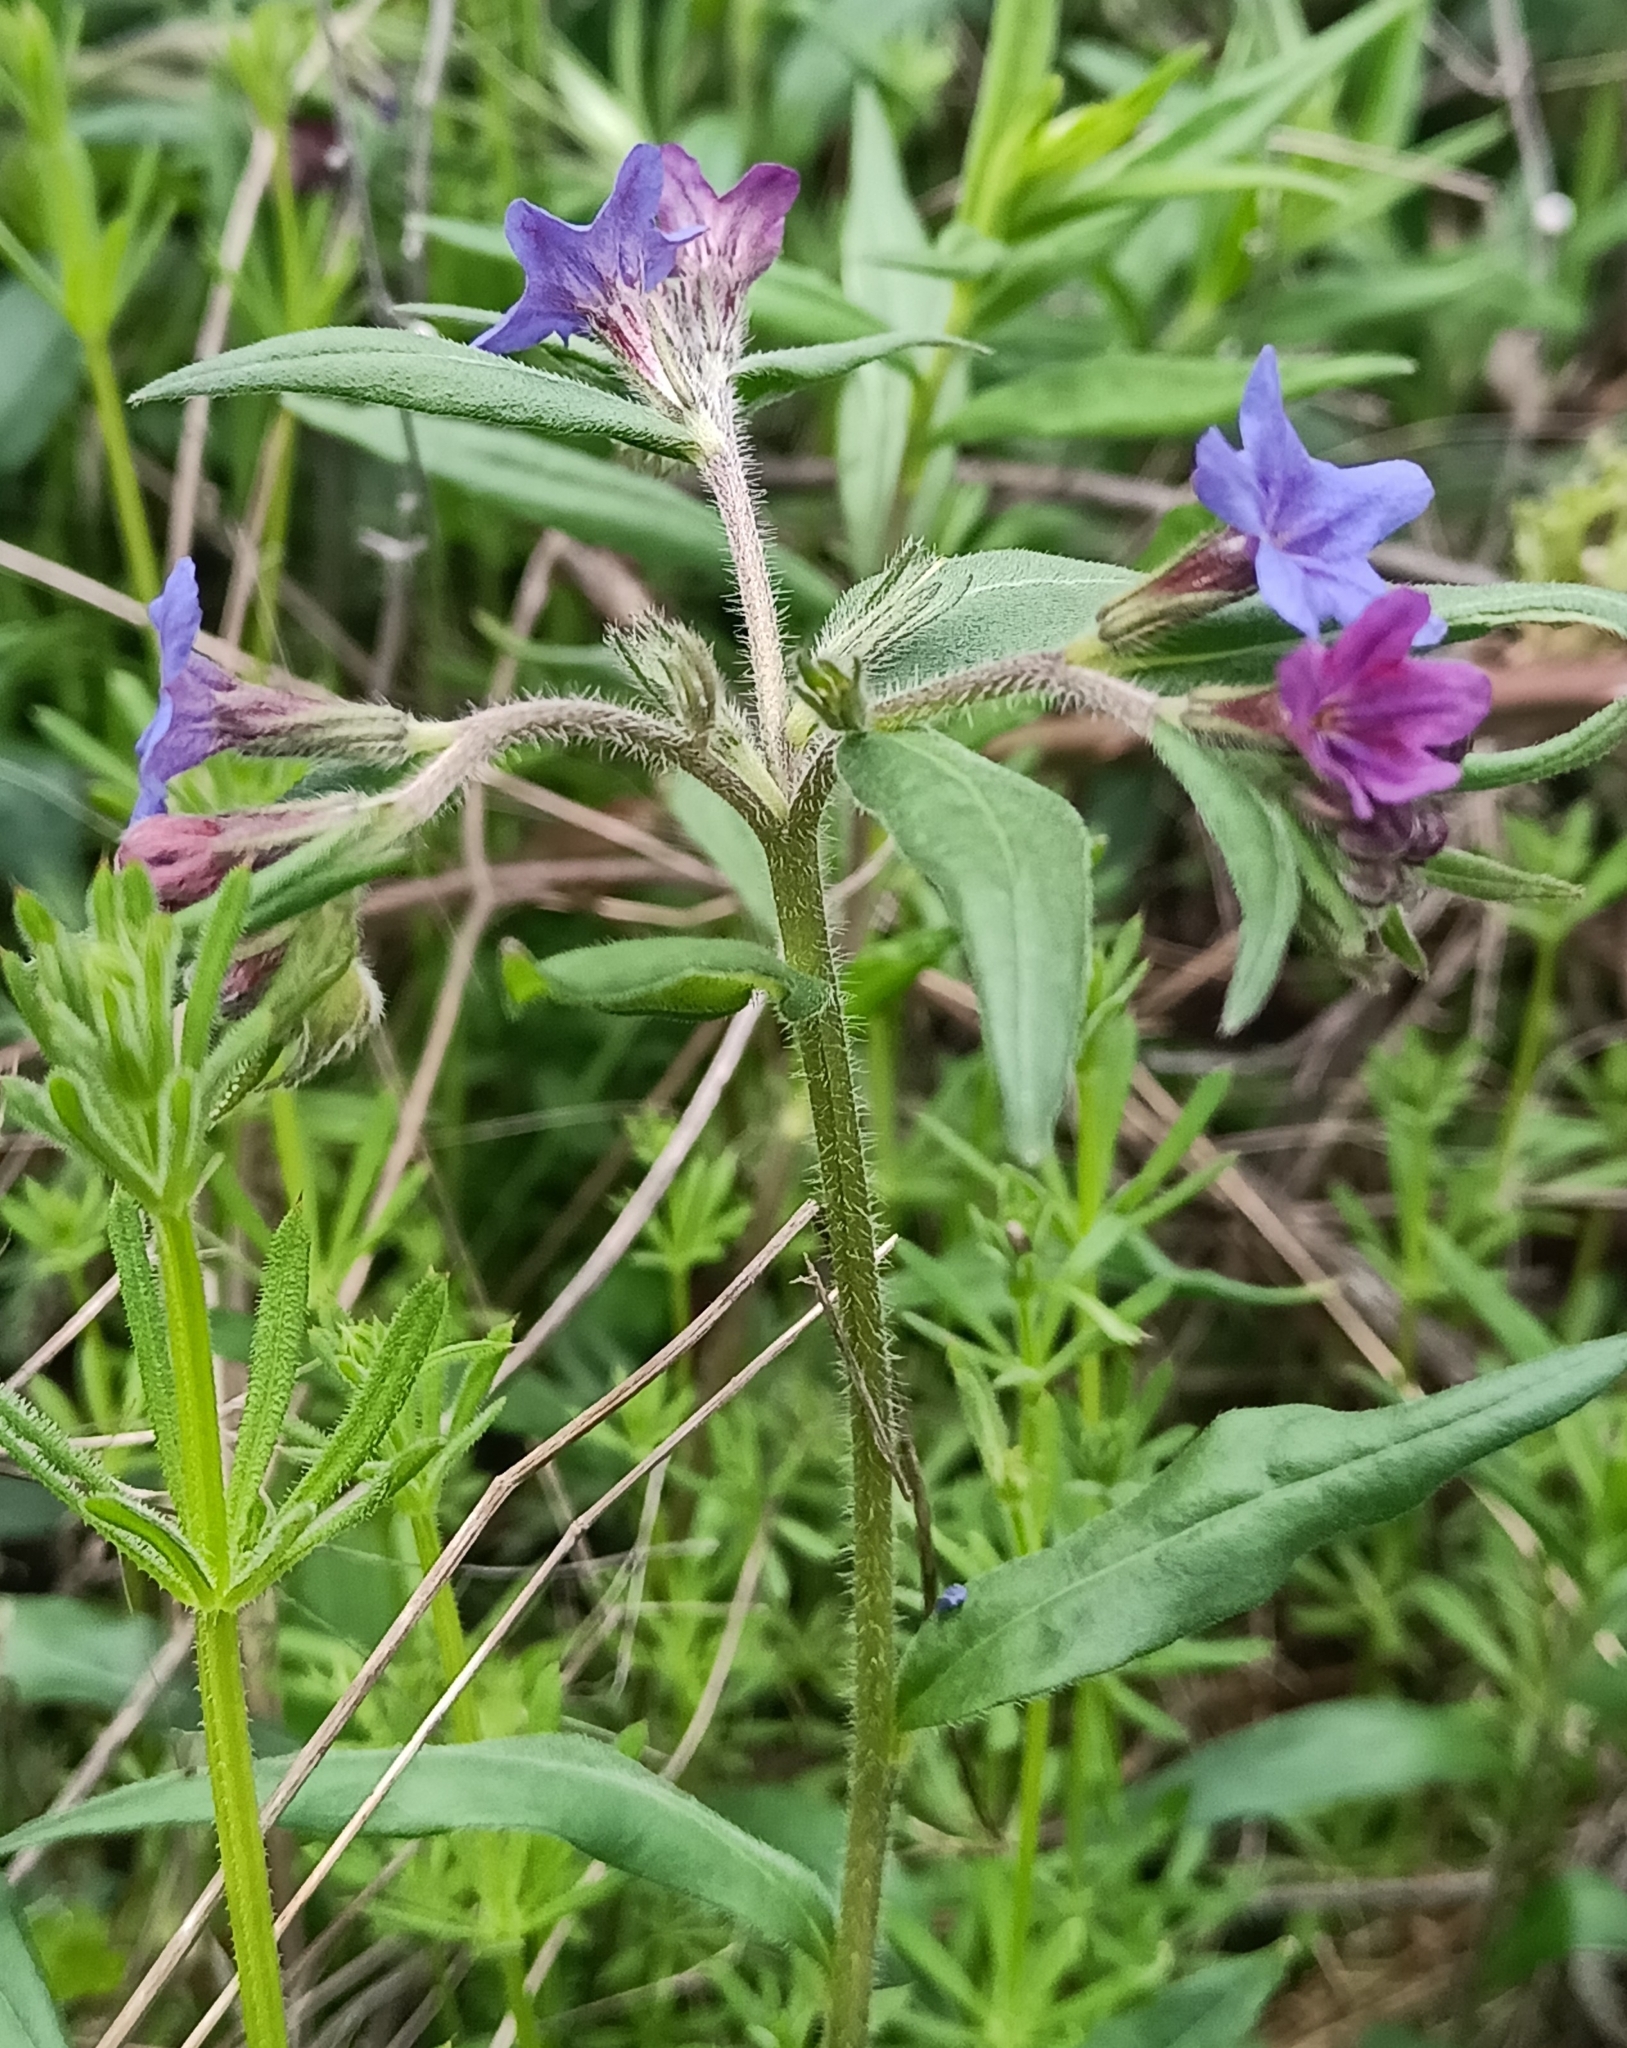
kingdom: Plantae
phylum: Tracheophyta
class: Magnoliopsida
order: Boraginales
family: Boraginaceae
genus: Aegonychon
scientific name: Aegonychon purpurocaeruleum
